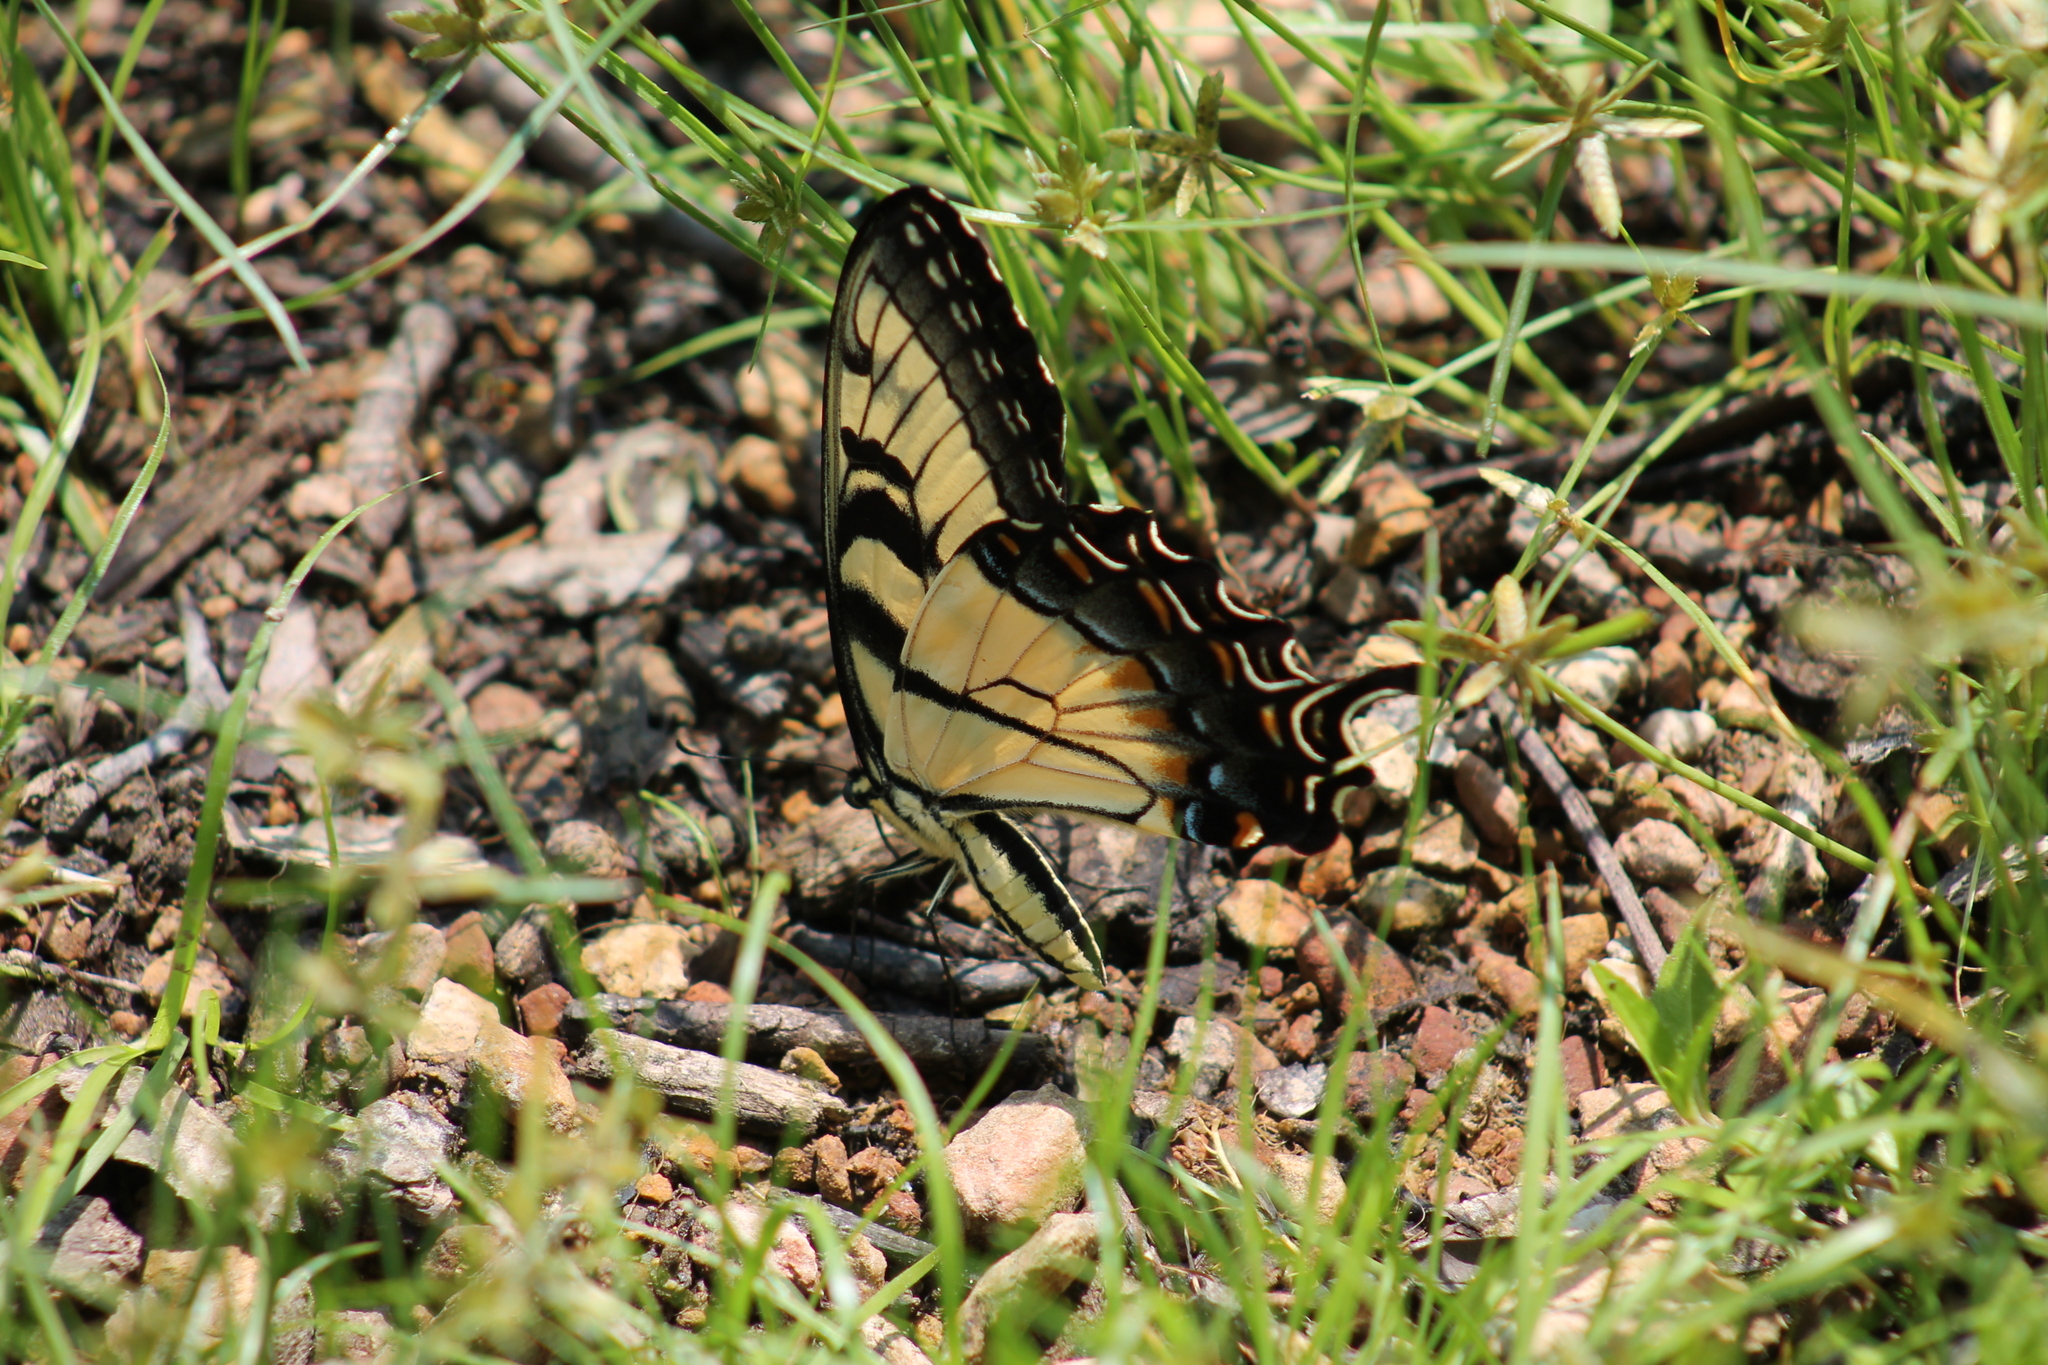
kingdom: Animalia
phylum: Arthropoda
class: Insecta
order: Lepidoptera
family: Papilionidae
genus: Papilio
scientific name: Papilio glaucus
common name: Tiger swallowtail
